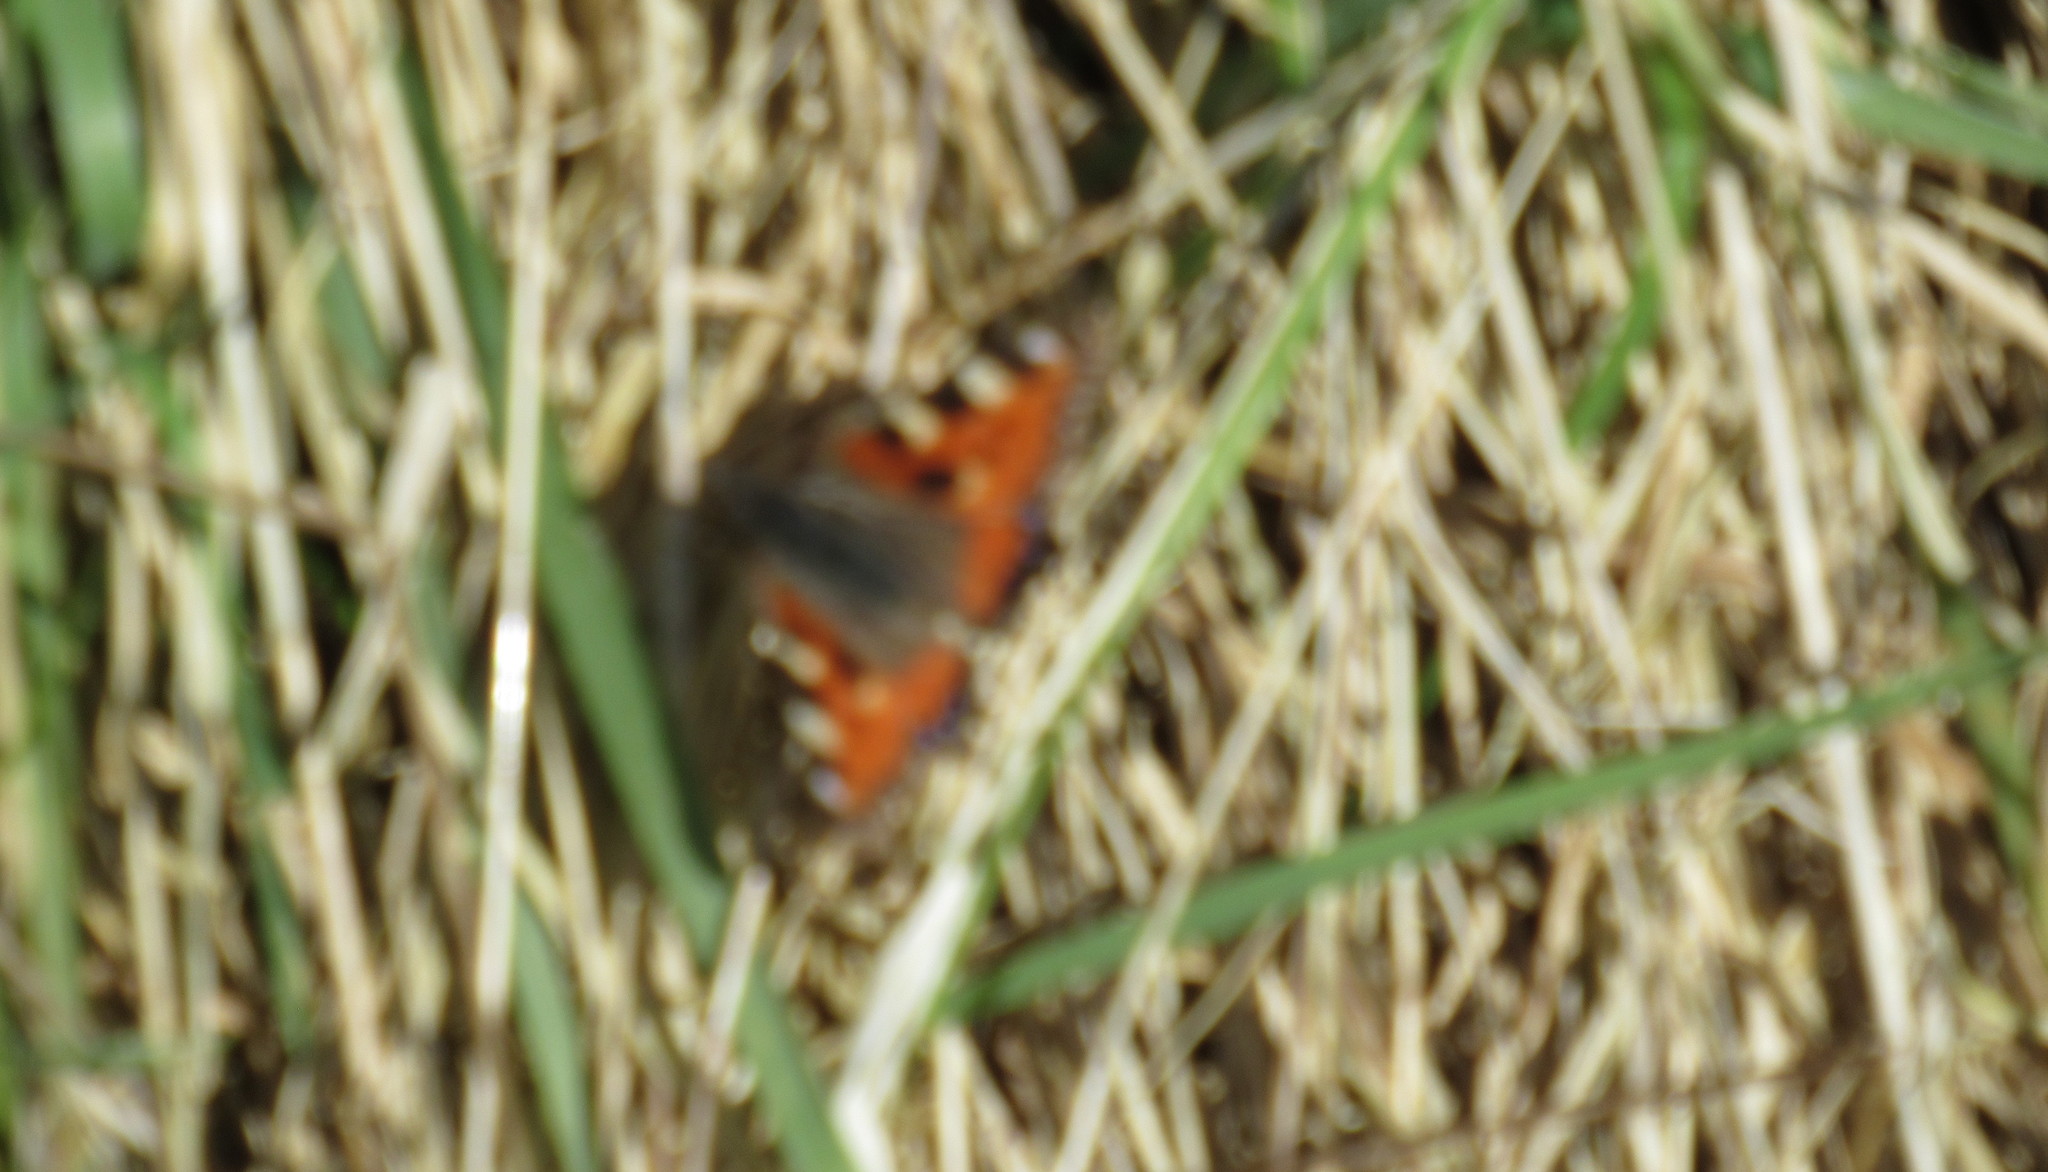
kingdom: Animalia
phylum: Arthropoda
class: Insecta
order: Lepidoptera
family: Nymphalidae
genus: Aglais
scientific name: Aglais urticae
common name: Small tortoiseshell
